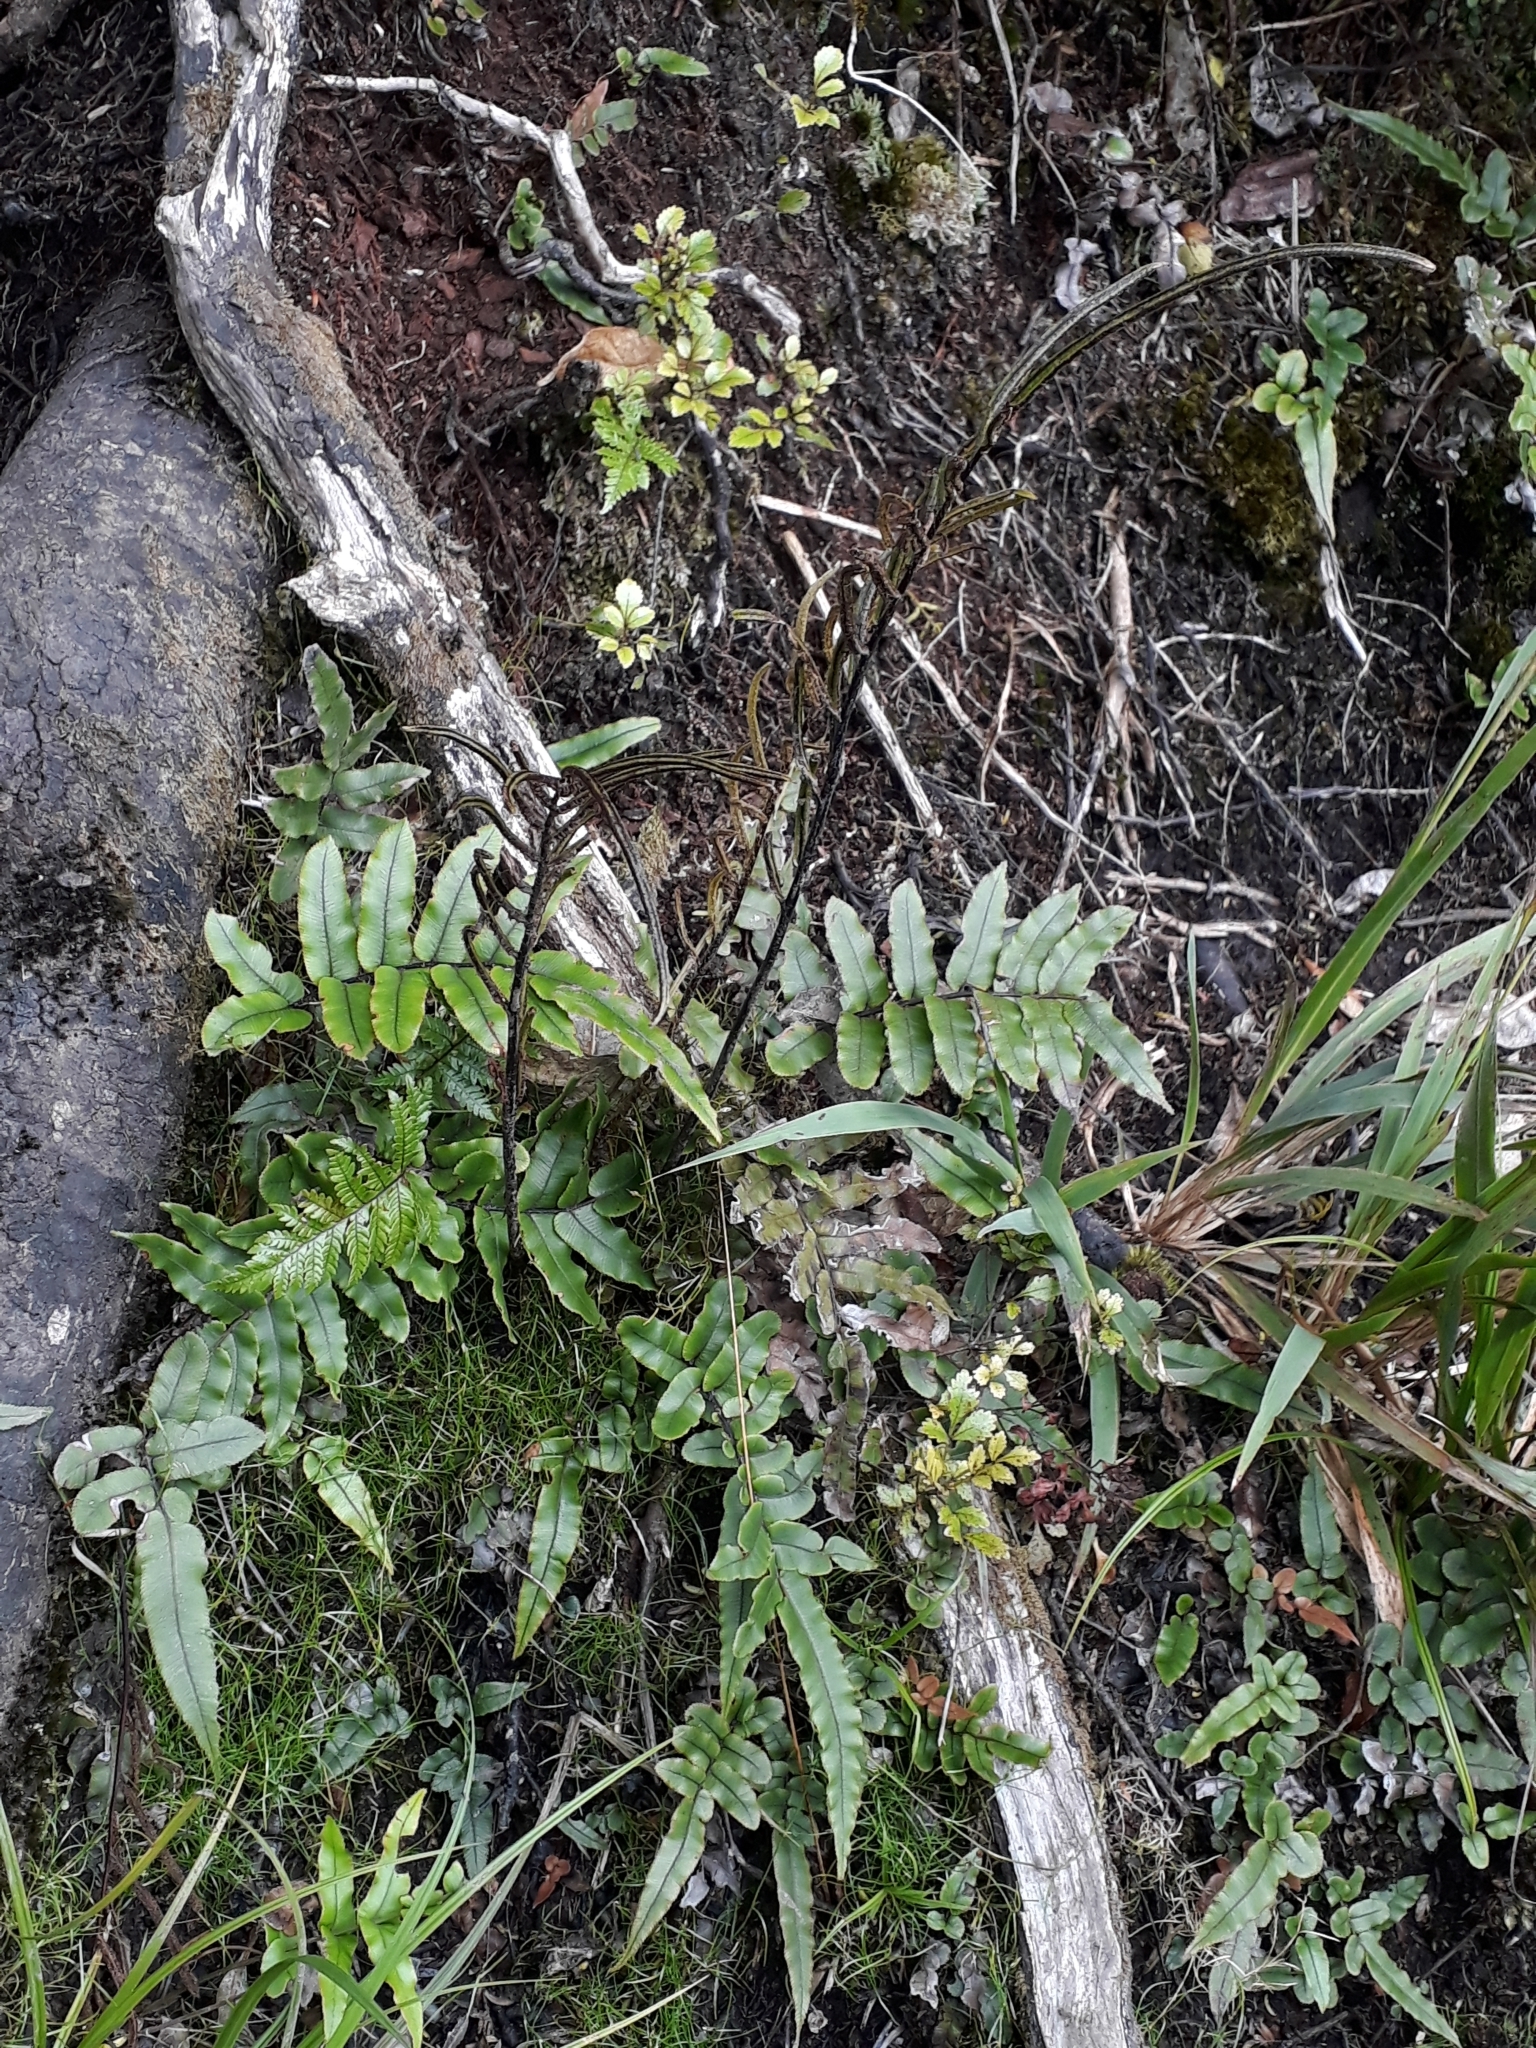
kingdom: Plantae
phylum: Tracheophyta
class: Polypodiopsida
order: Polypodiales
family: Blechnaceae
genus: Parablechnum
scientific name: Parablechnum procerum
